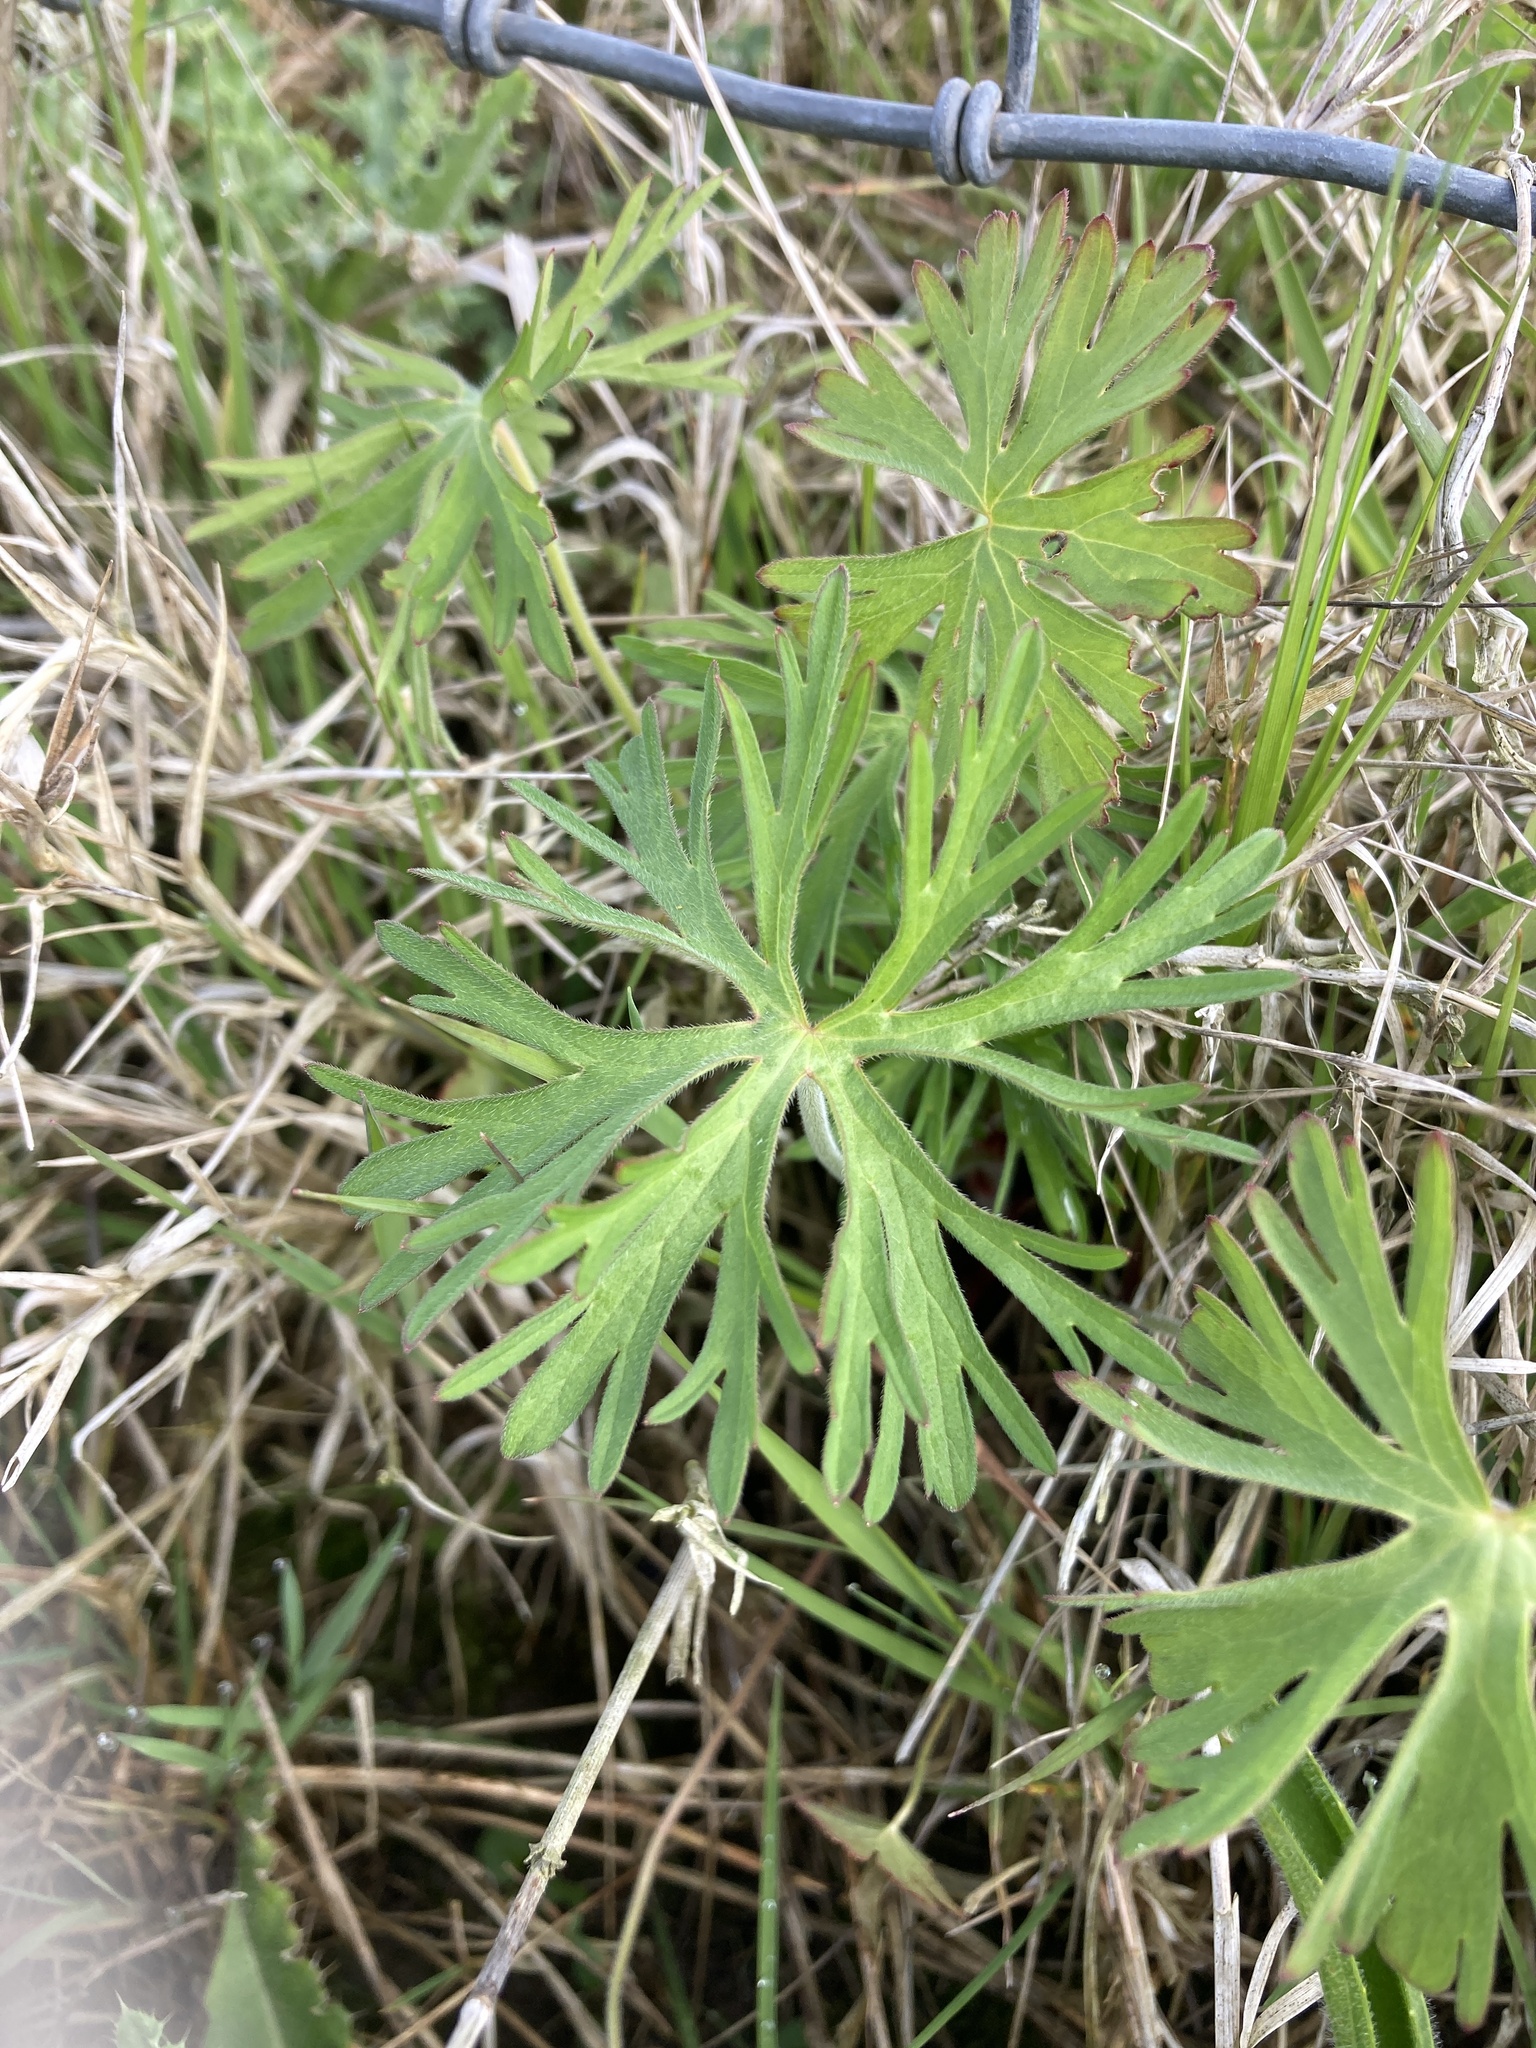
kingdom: Plantae
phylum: Tracheophyta
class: Magnoliopsida
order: Geraniales
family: Geraniaceae
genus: Geranium
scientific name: Geranium dissectum
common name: Cut-leaved crane's-bill
